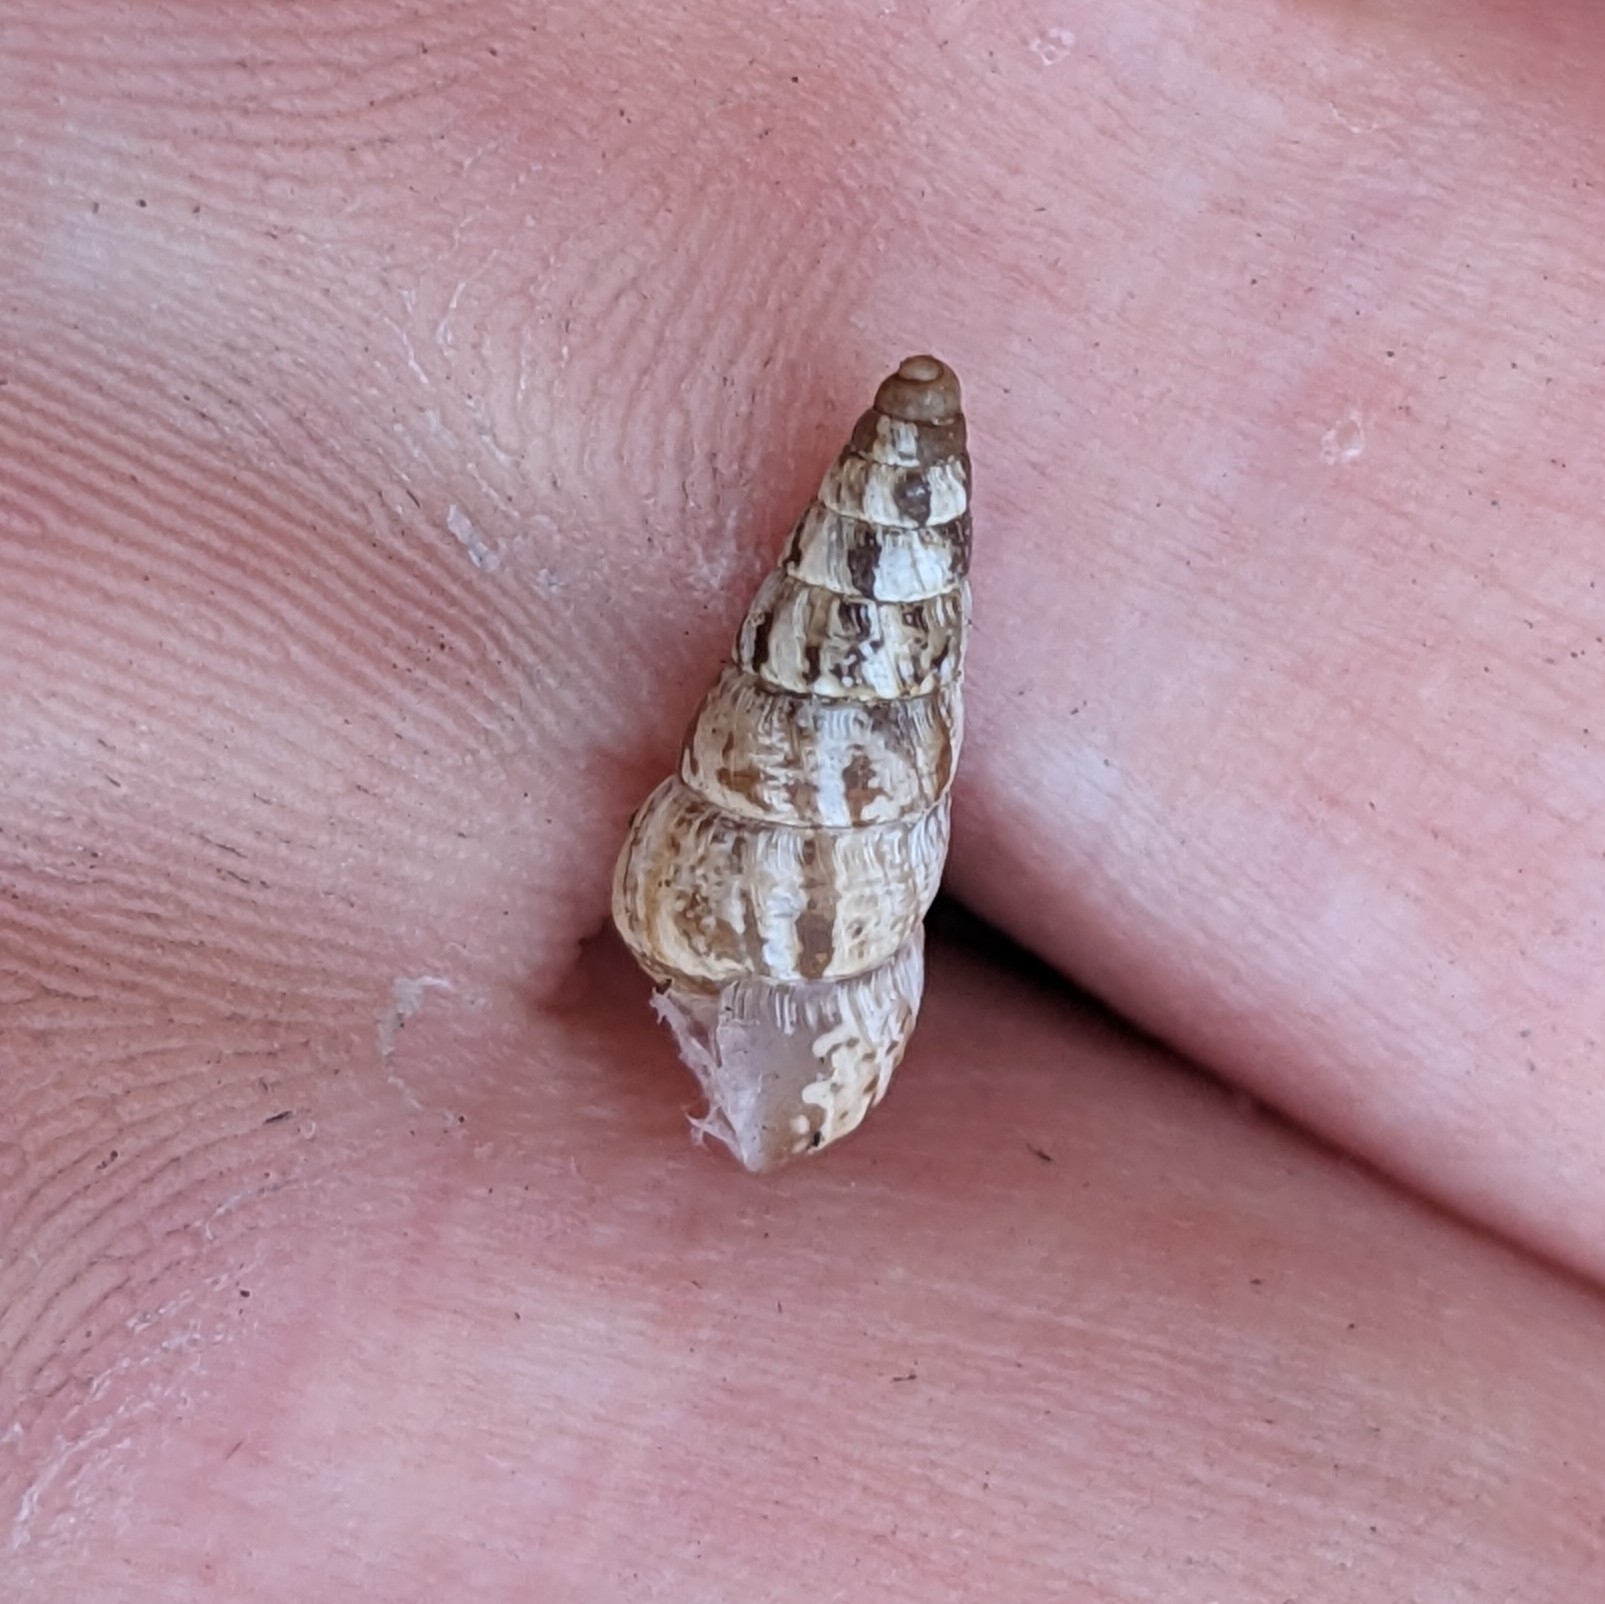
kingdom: Animalia
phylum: Mollusca
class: Gastropoda
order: Stylommatophora
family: Geomitridae
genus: Cochlicella
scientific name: Cochlicella acuta
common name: Pointed snail
